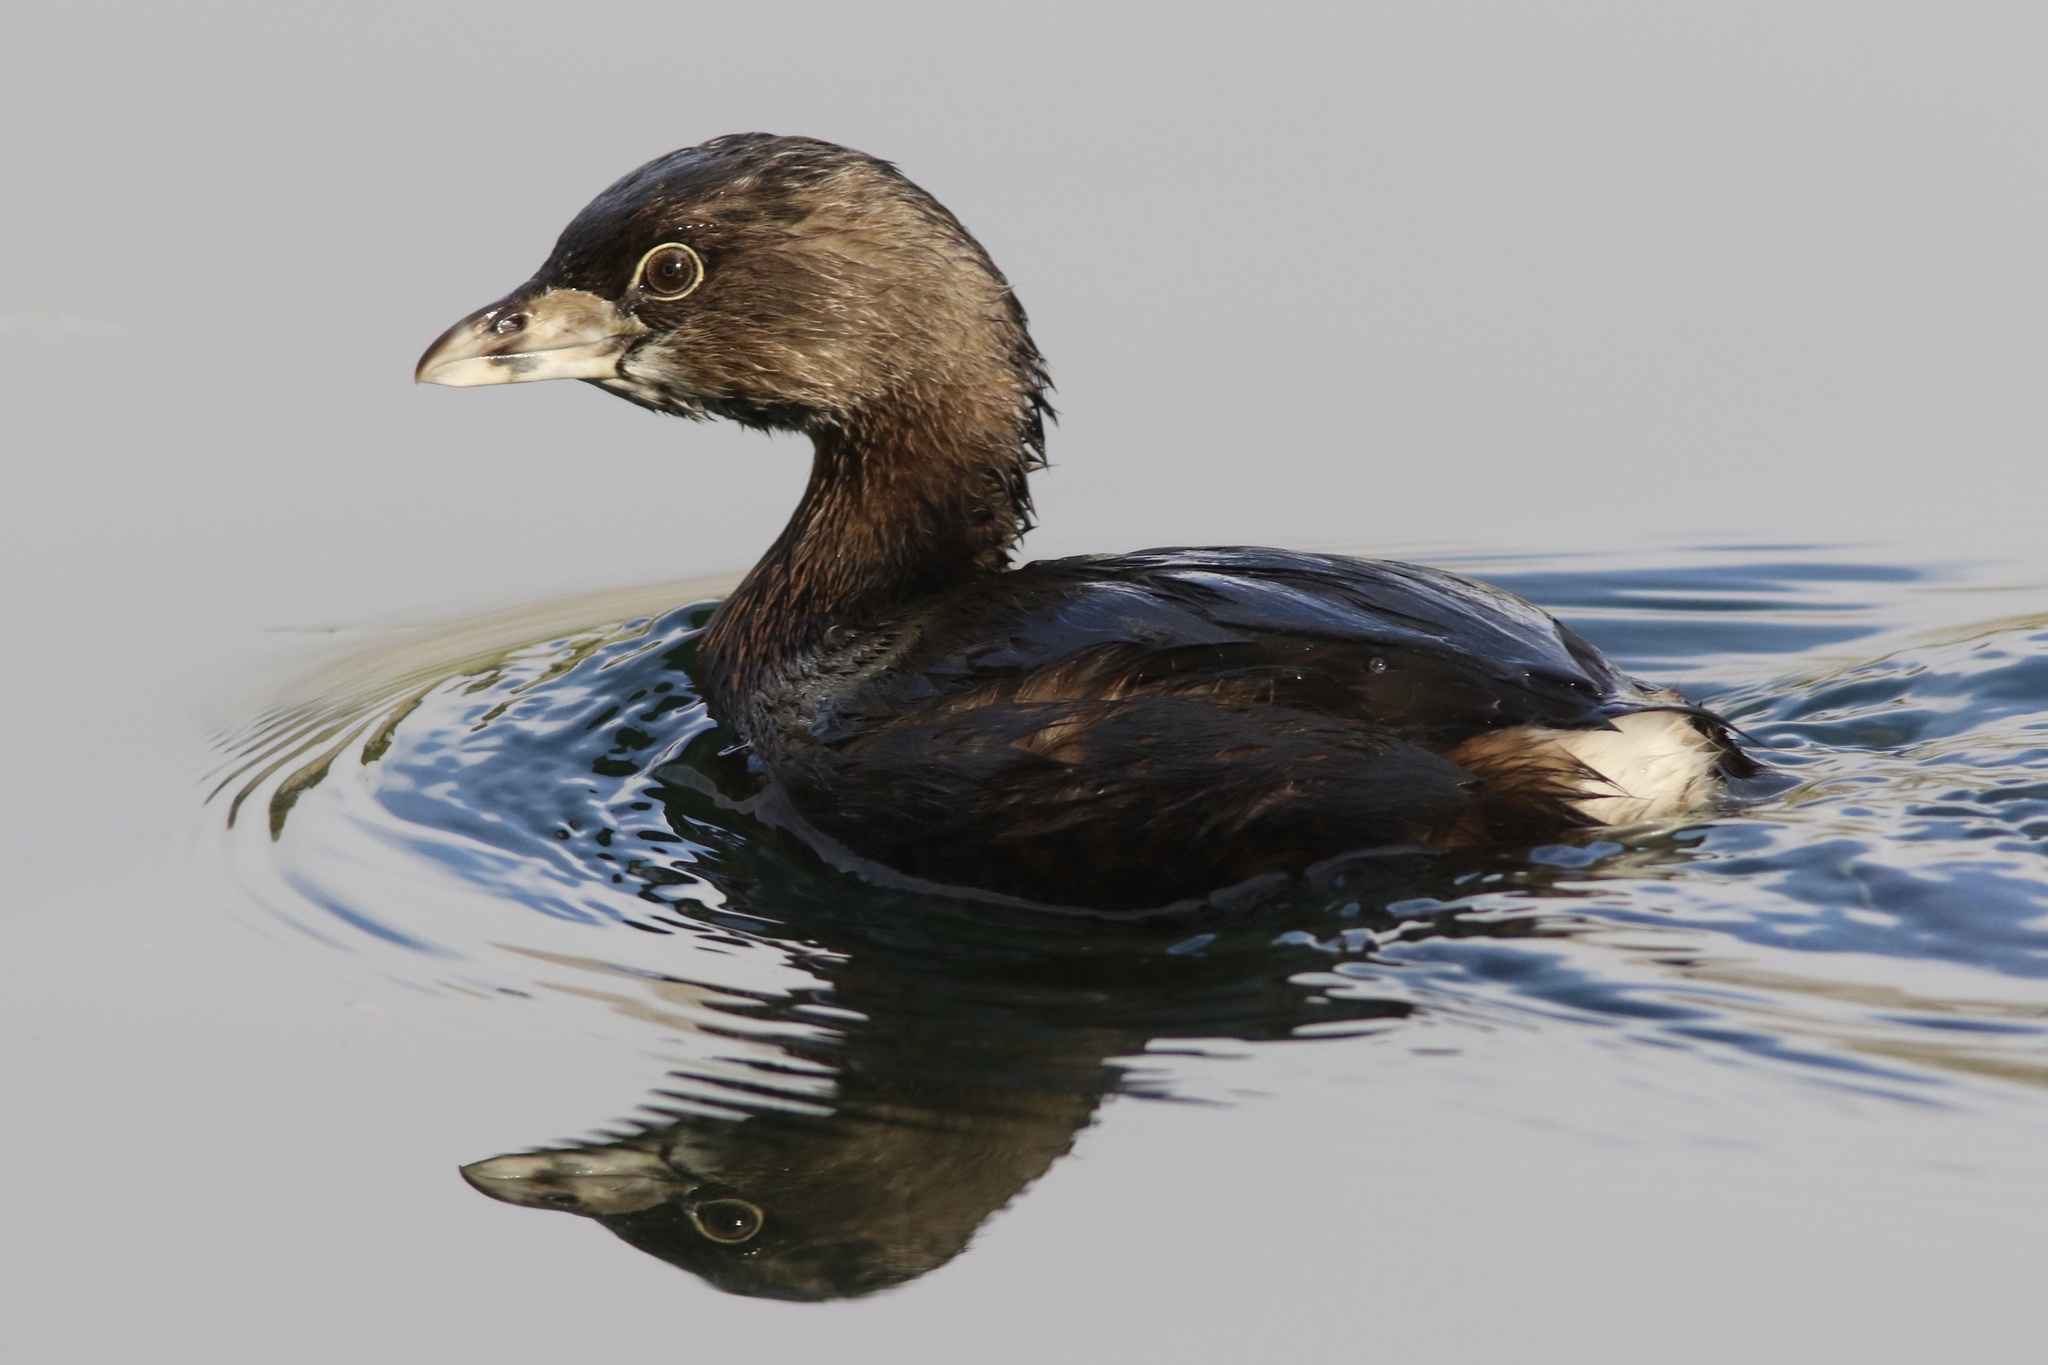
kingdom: Animalia
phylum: Chordata
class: Aves
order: Podicipediformes
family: Podicipedidae
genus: Podilymbus
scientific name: Podilymbus podiceps
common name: Pied-billed grebe
